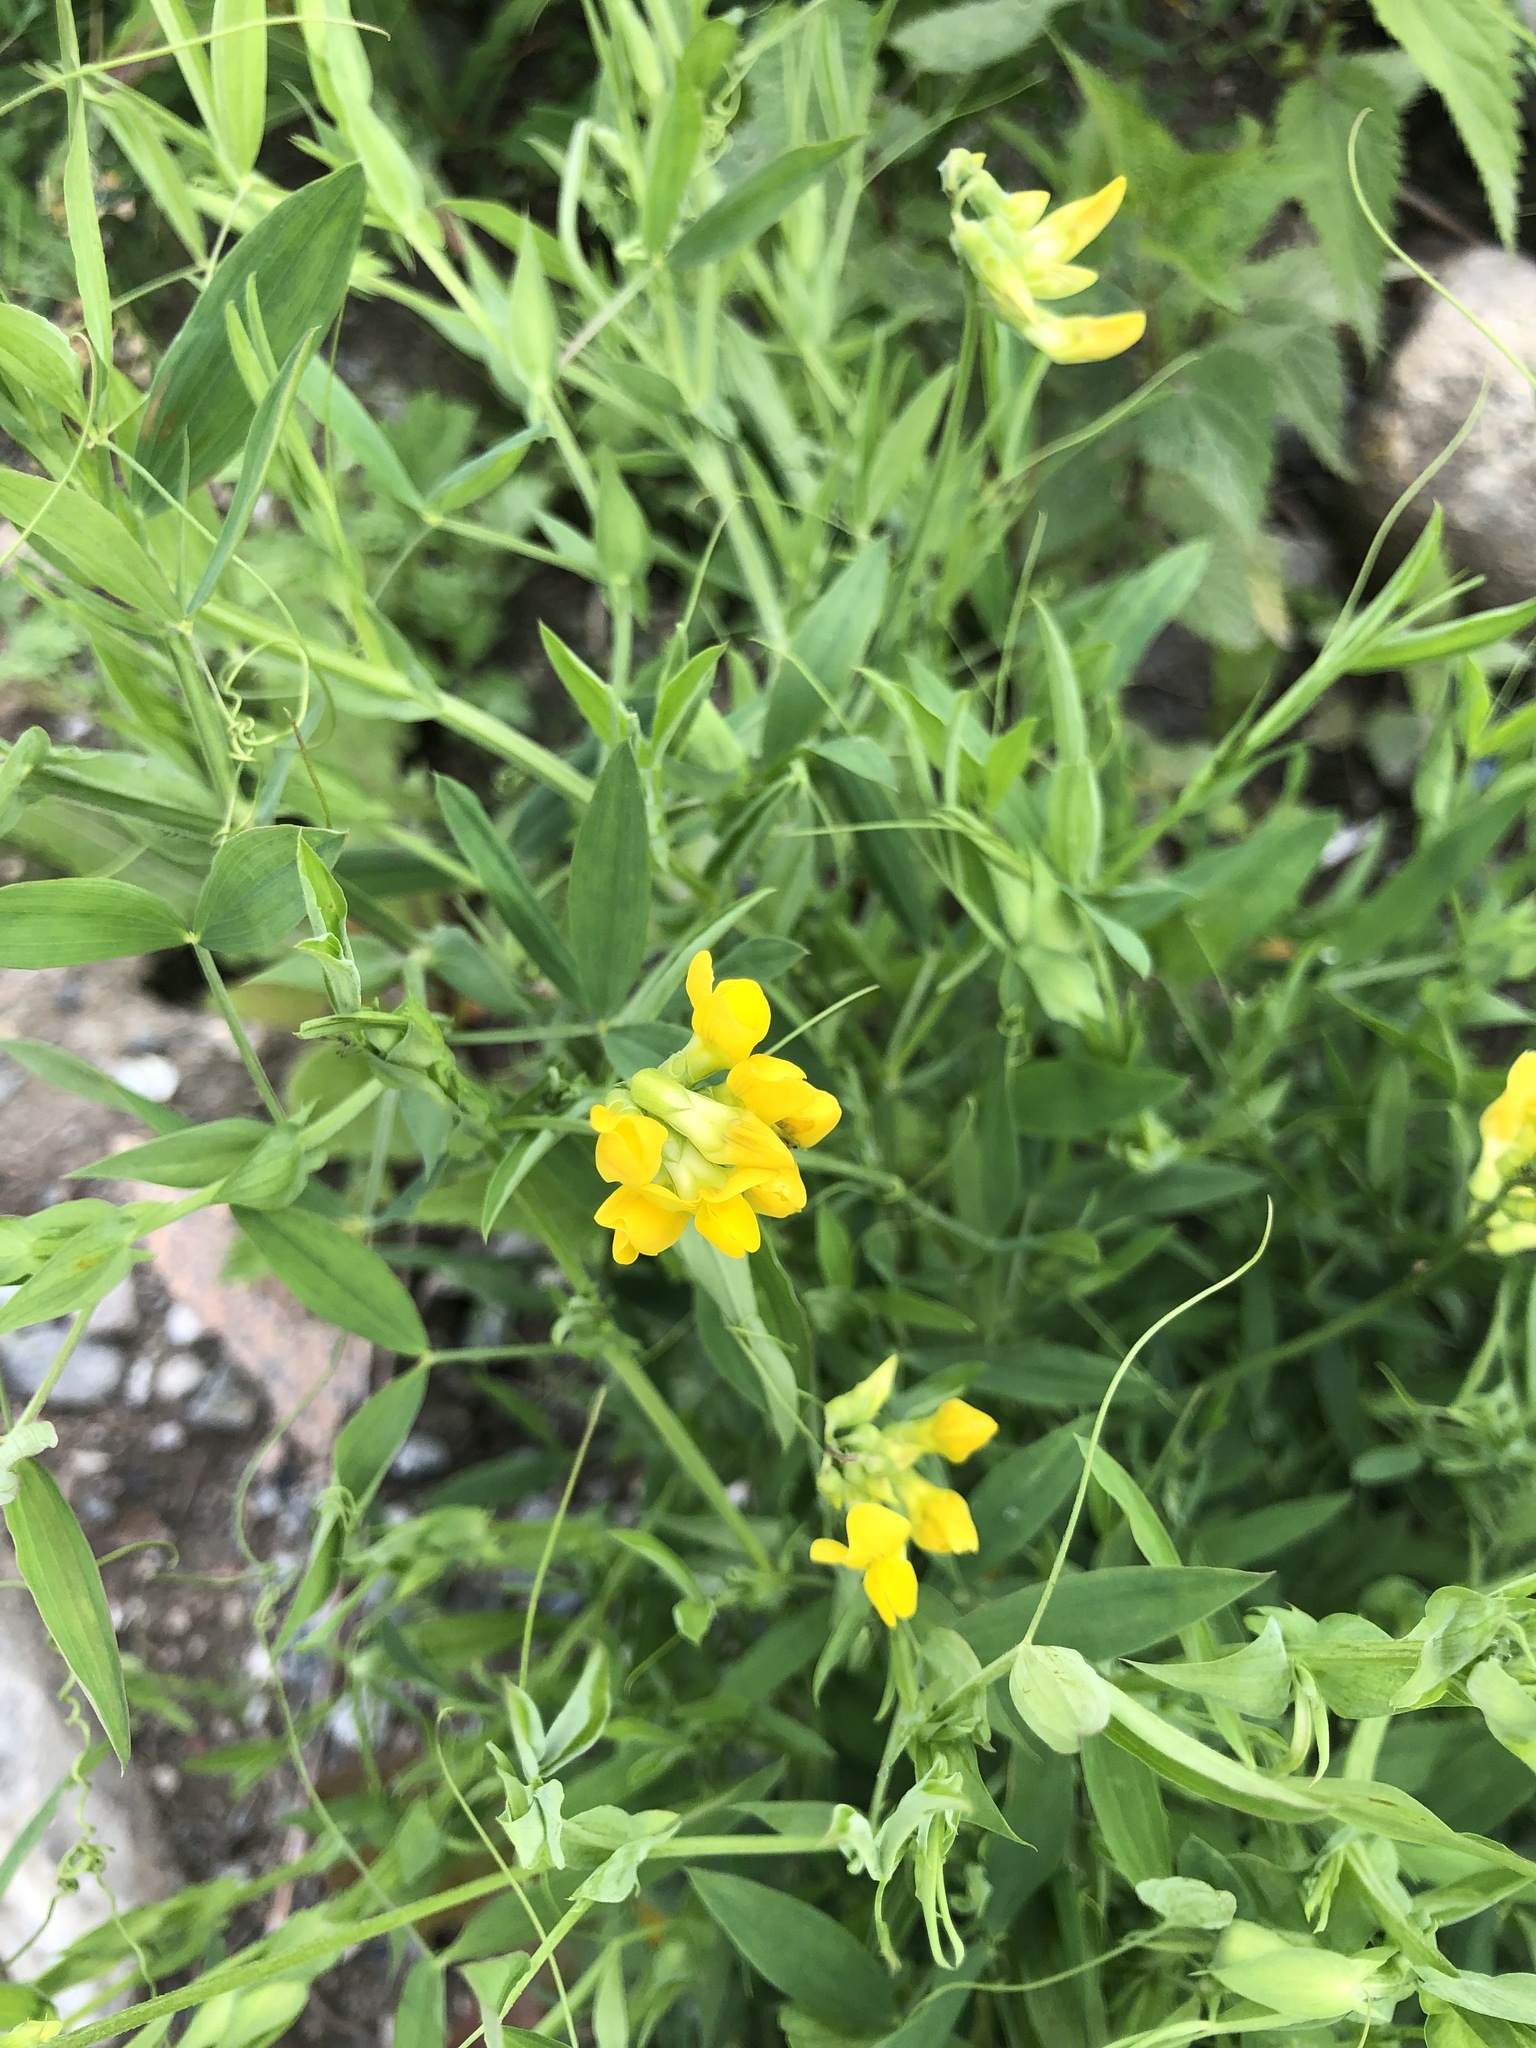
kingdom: Plantae
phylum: Tracheophyta
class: Magnoliopsida
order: Fabales
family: Fabaceae
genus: Lathyrus
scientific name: Lathyrus pratensis
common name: Meadow vetchling
